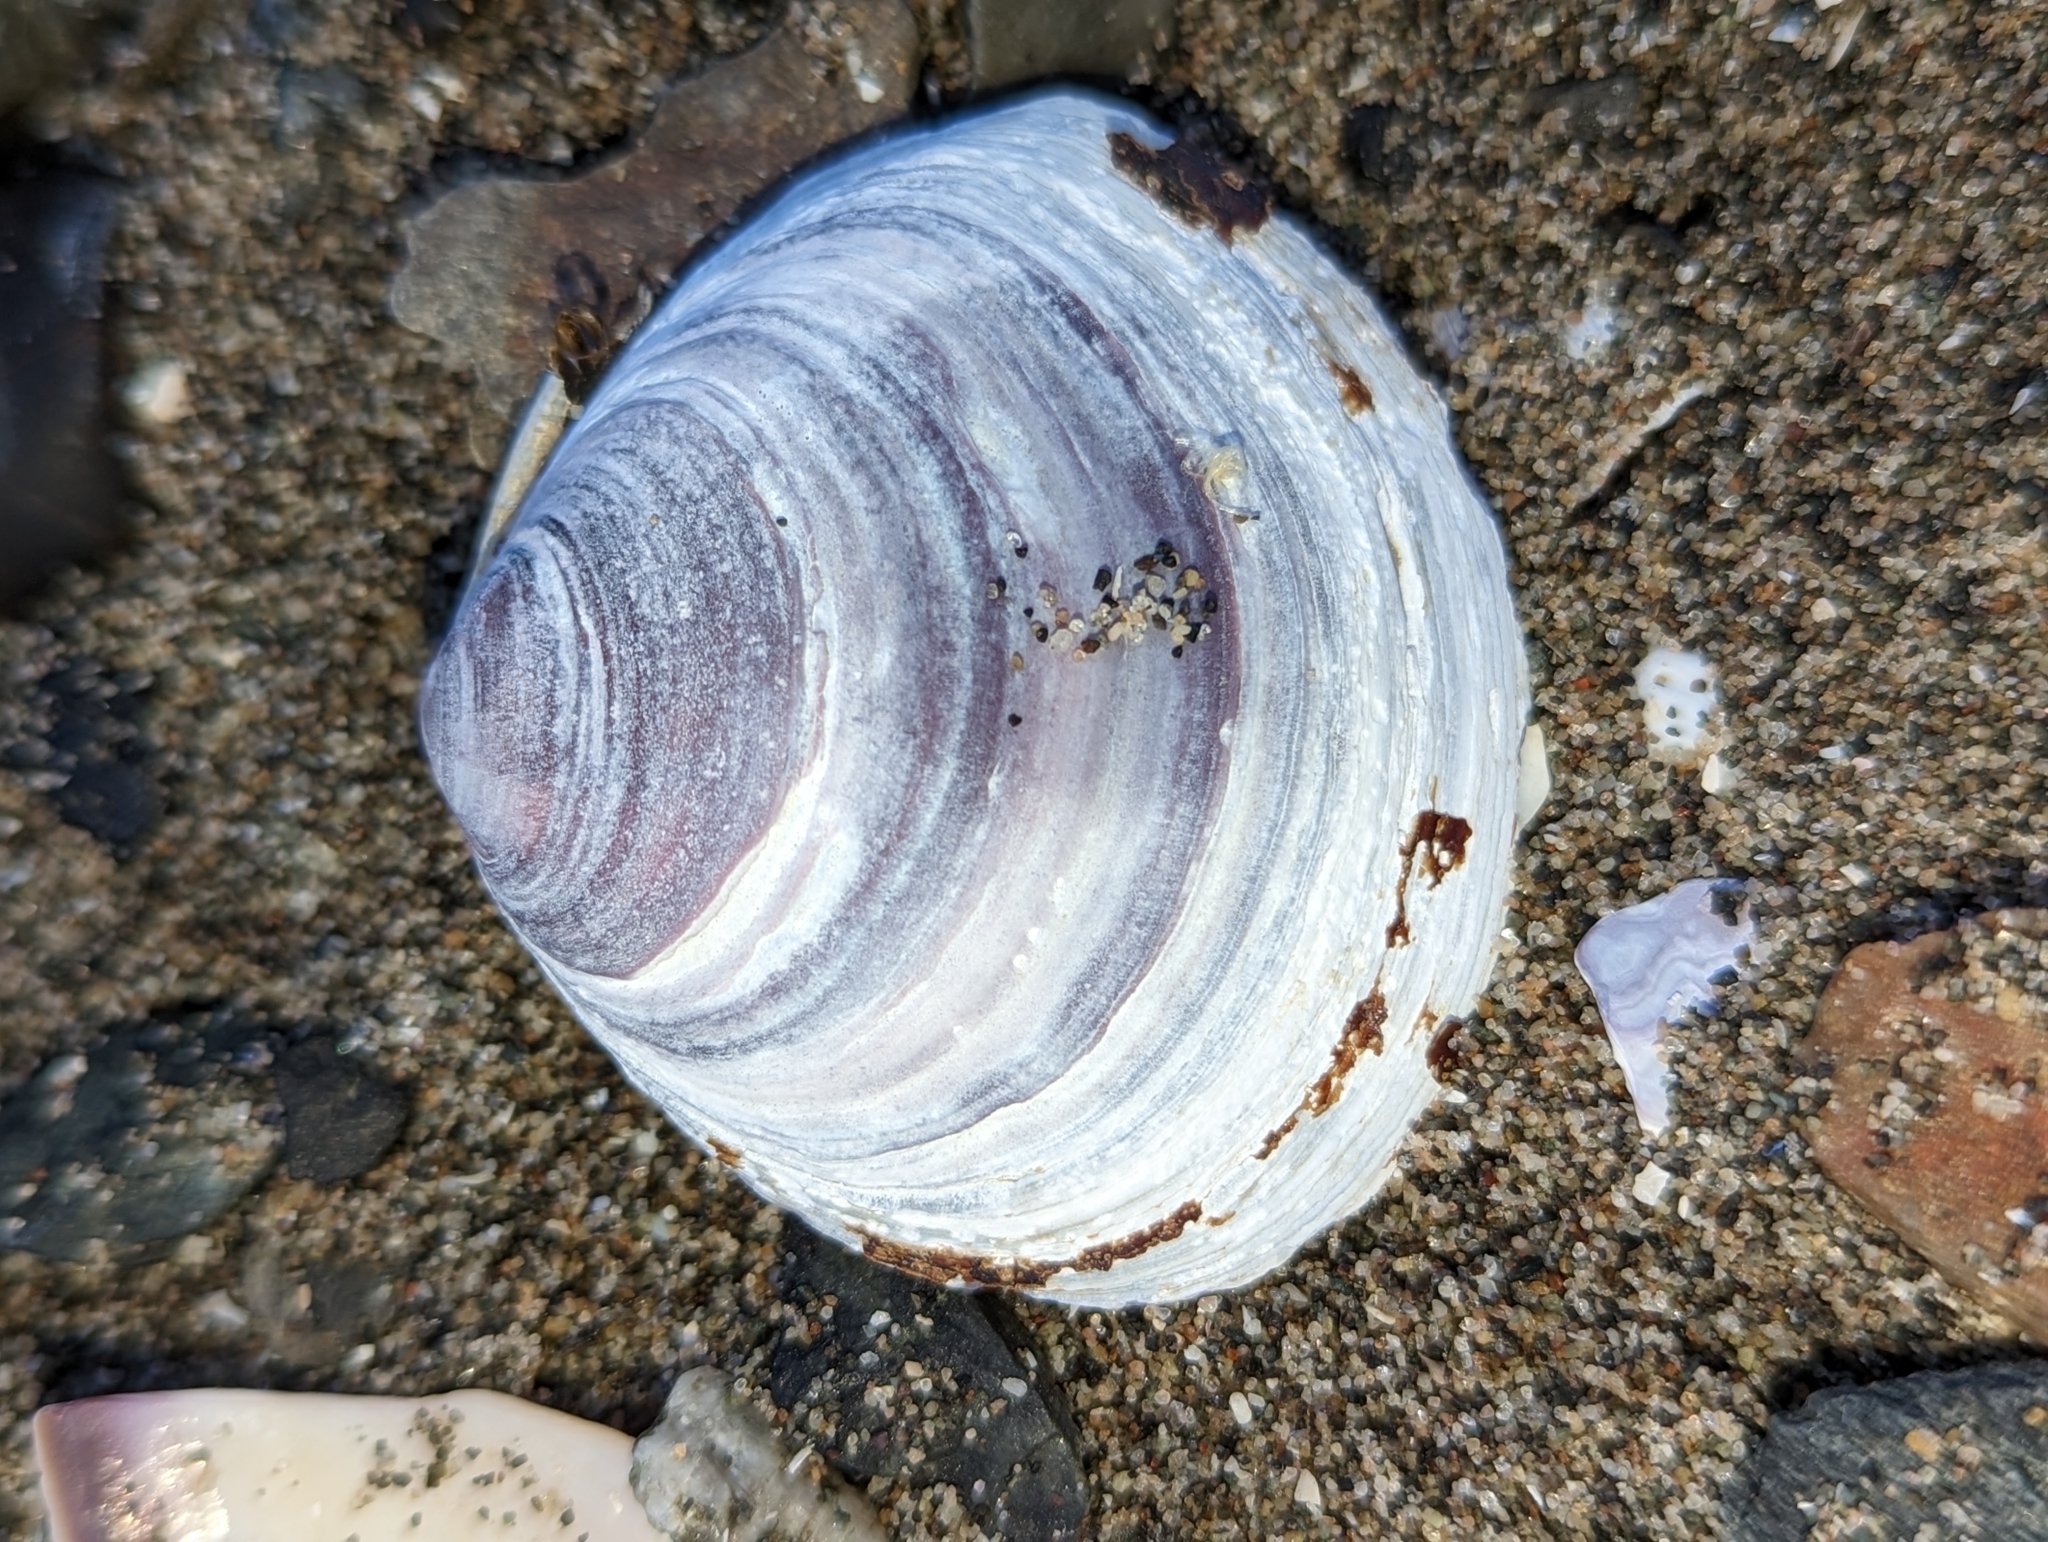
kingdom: Animalia
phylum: Mollusca
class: Bivalvia
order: Cardiida
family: Psammobiidae
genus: Nuttallia
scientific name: Nuttallia obscurata
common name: Purple mahogany-clam
